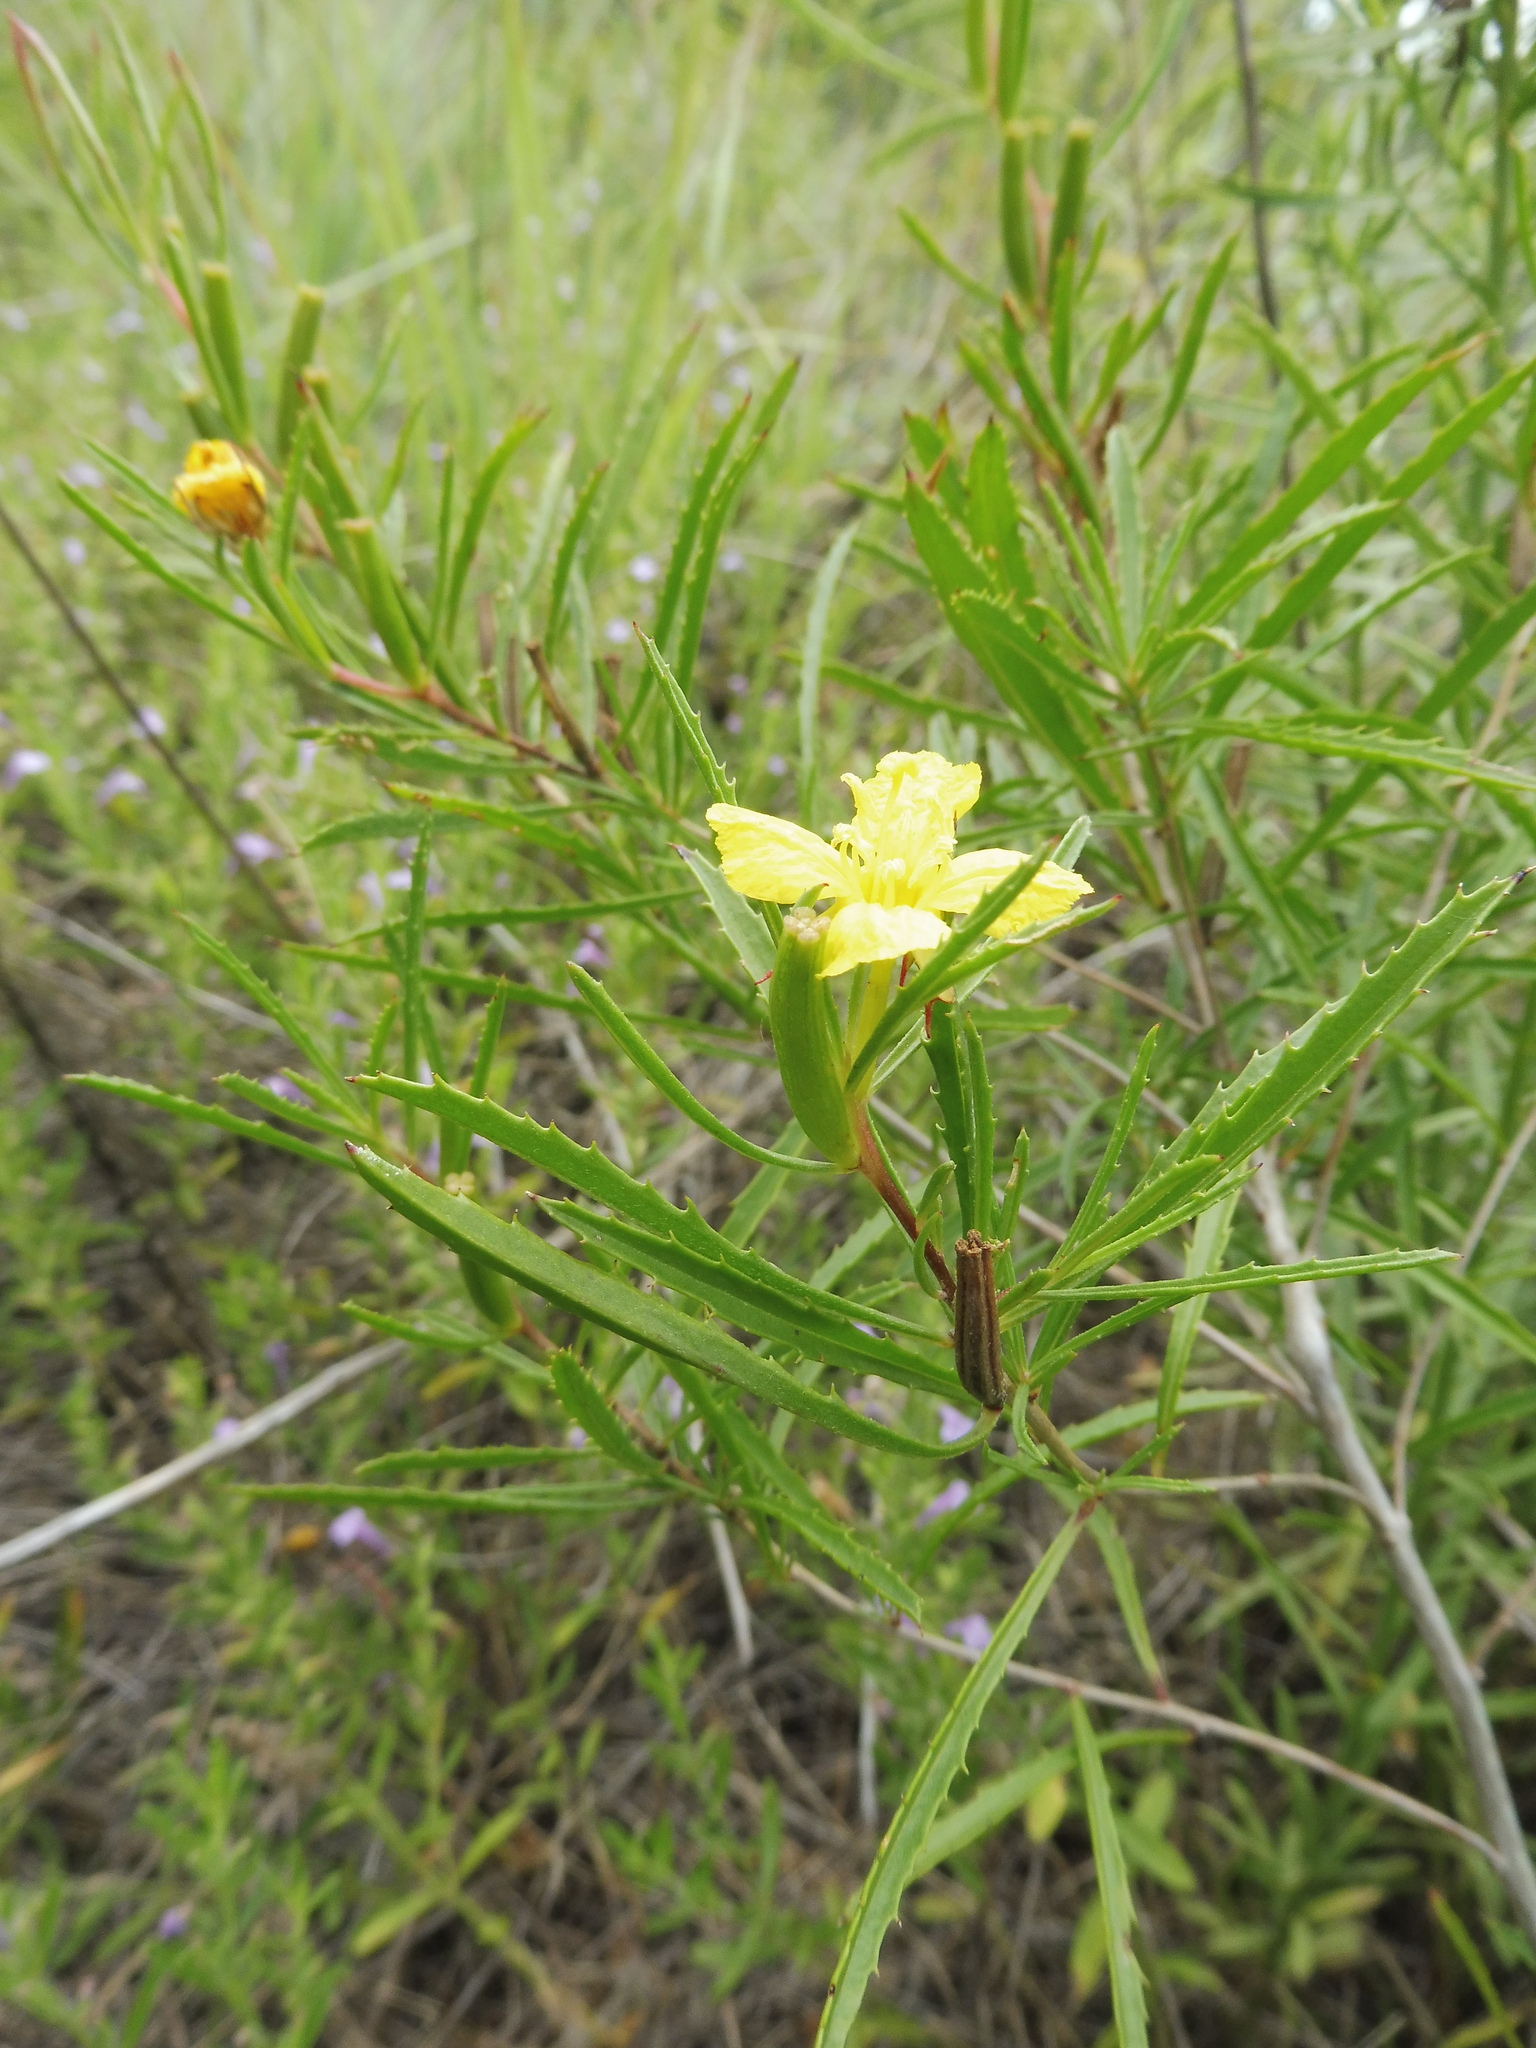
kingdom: Plantae
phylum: Tracheophyta
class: Magnoliopsida
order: Myrtales
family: Onagraceae
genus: Oenothera
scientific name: Oenothera
